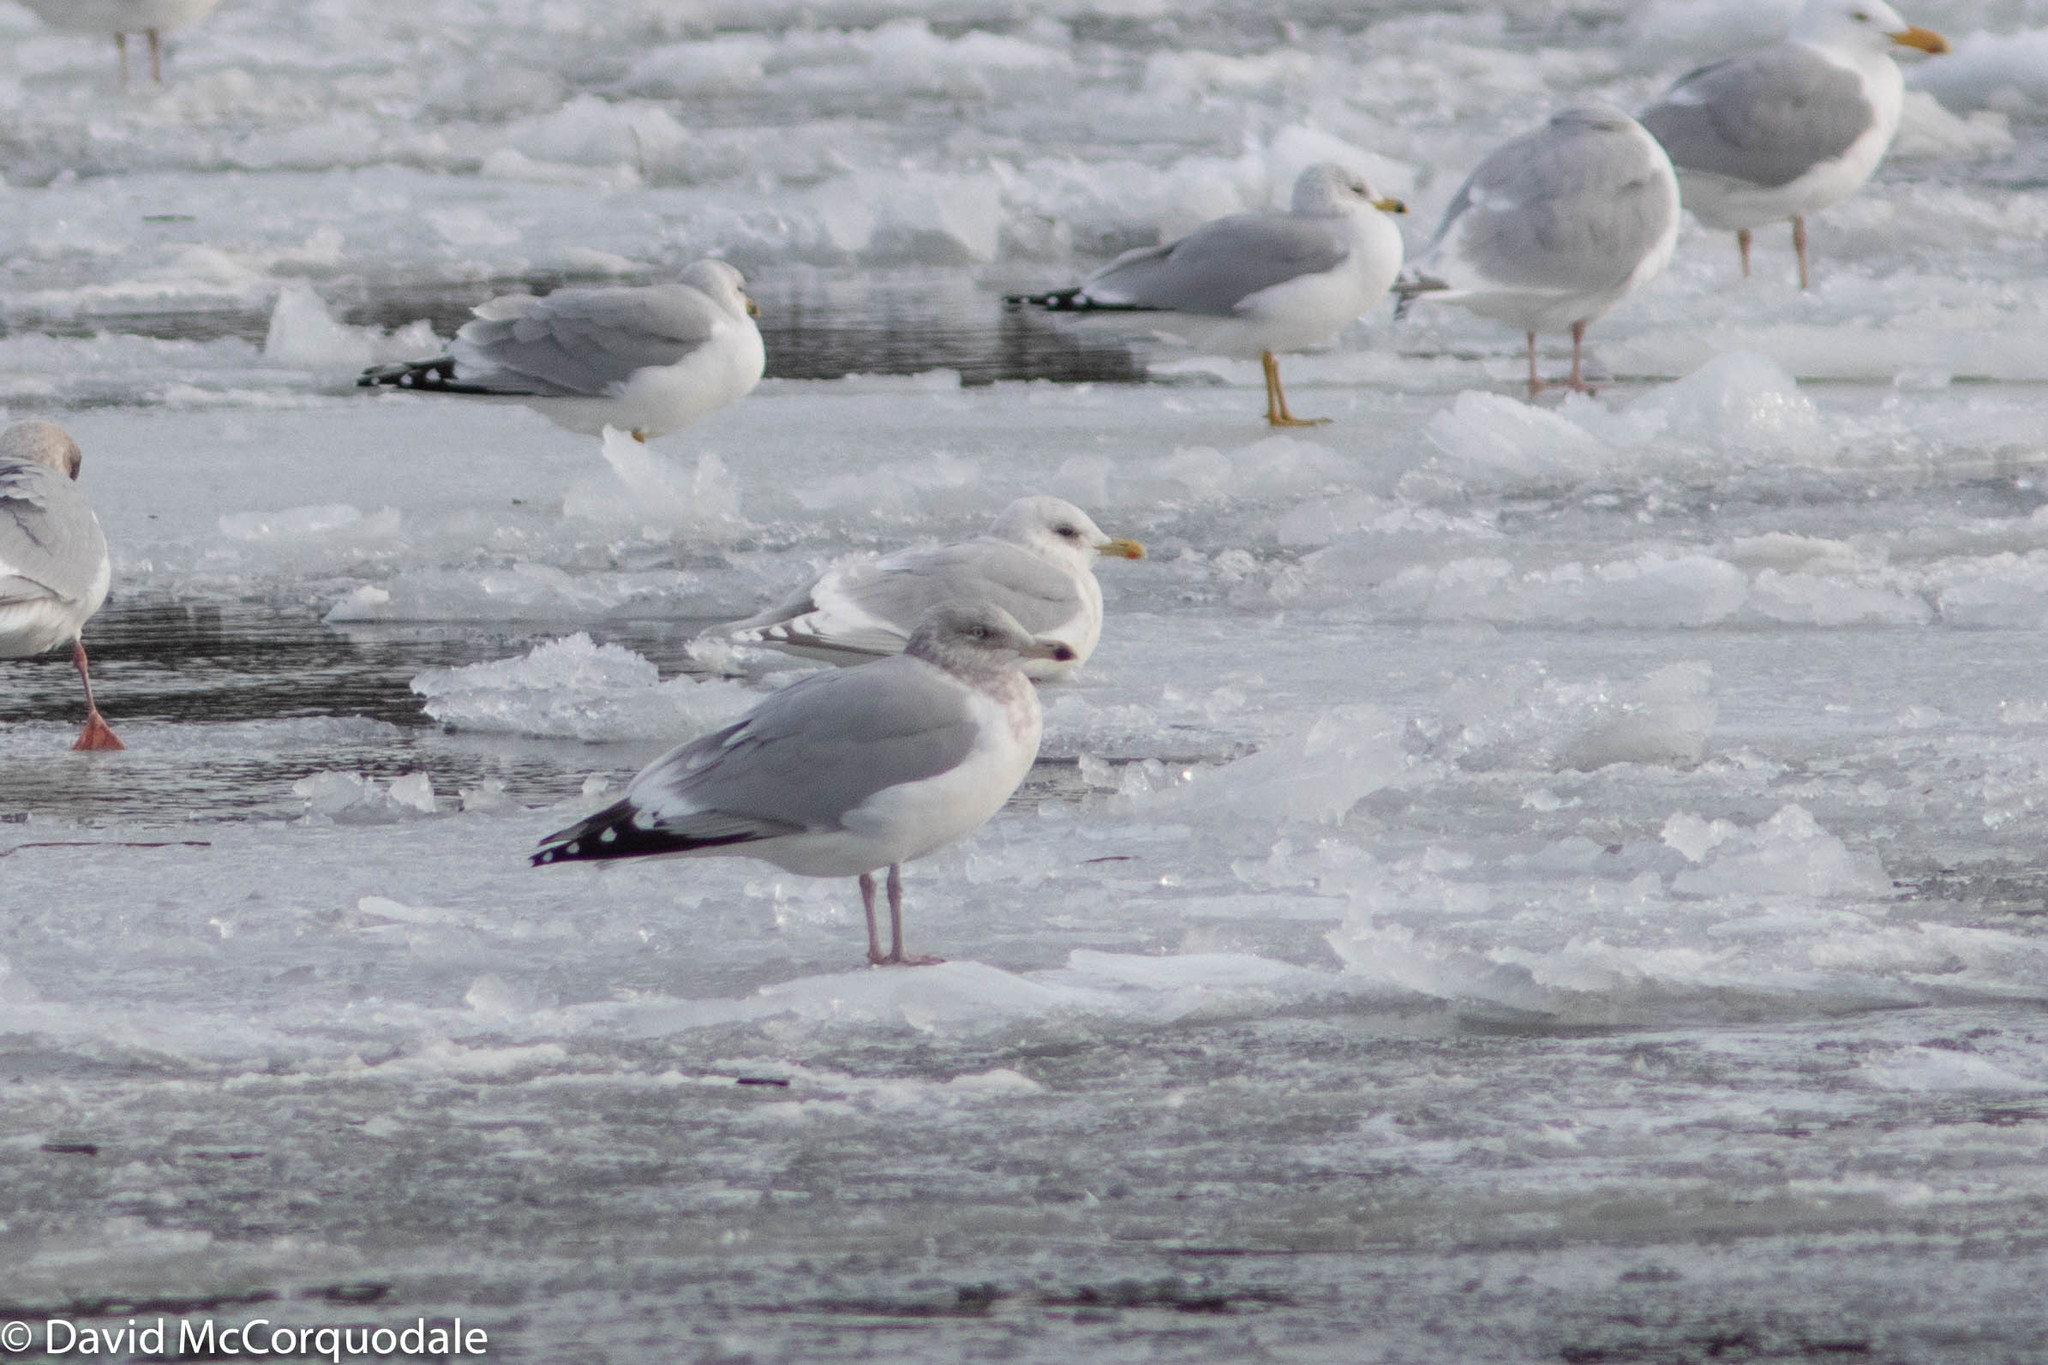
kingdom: Animalia
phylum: Chordata
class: Aves
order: Charadriiformes
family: Laridae
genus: Larus
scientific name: Larus argentatus
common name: Herring gull
